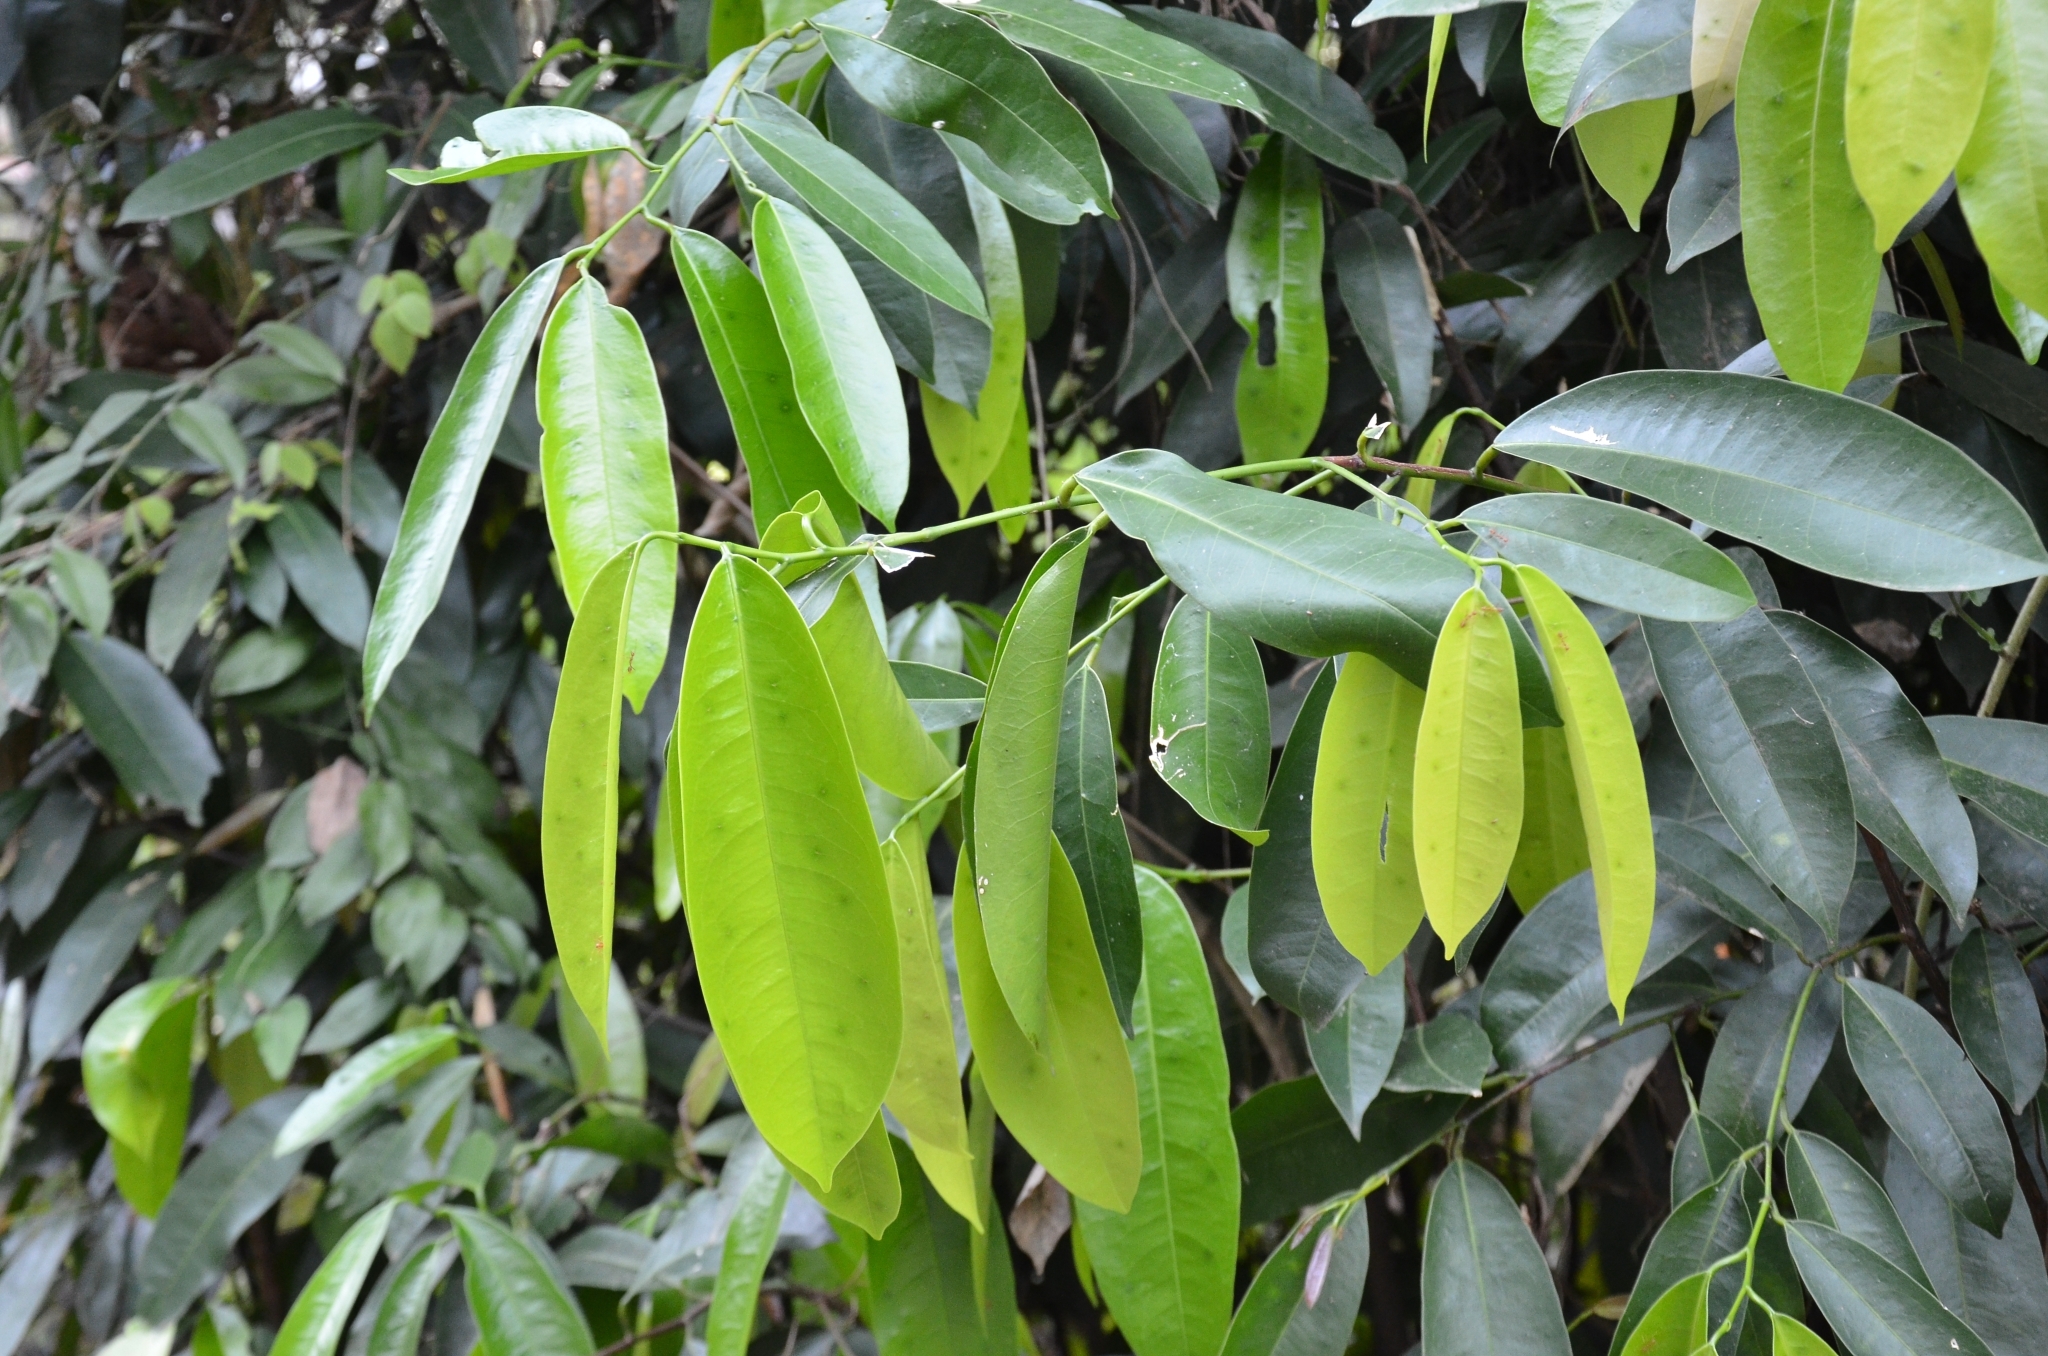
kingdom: Plantae
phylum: Tracheophyta
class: Magnoliopsida
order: Sapindales
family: Simaroubaceae
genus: Samadera
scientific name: Samadera indica
